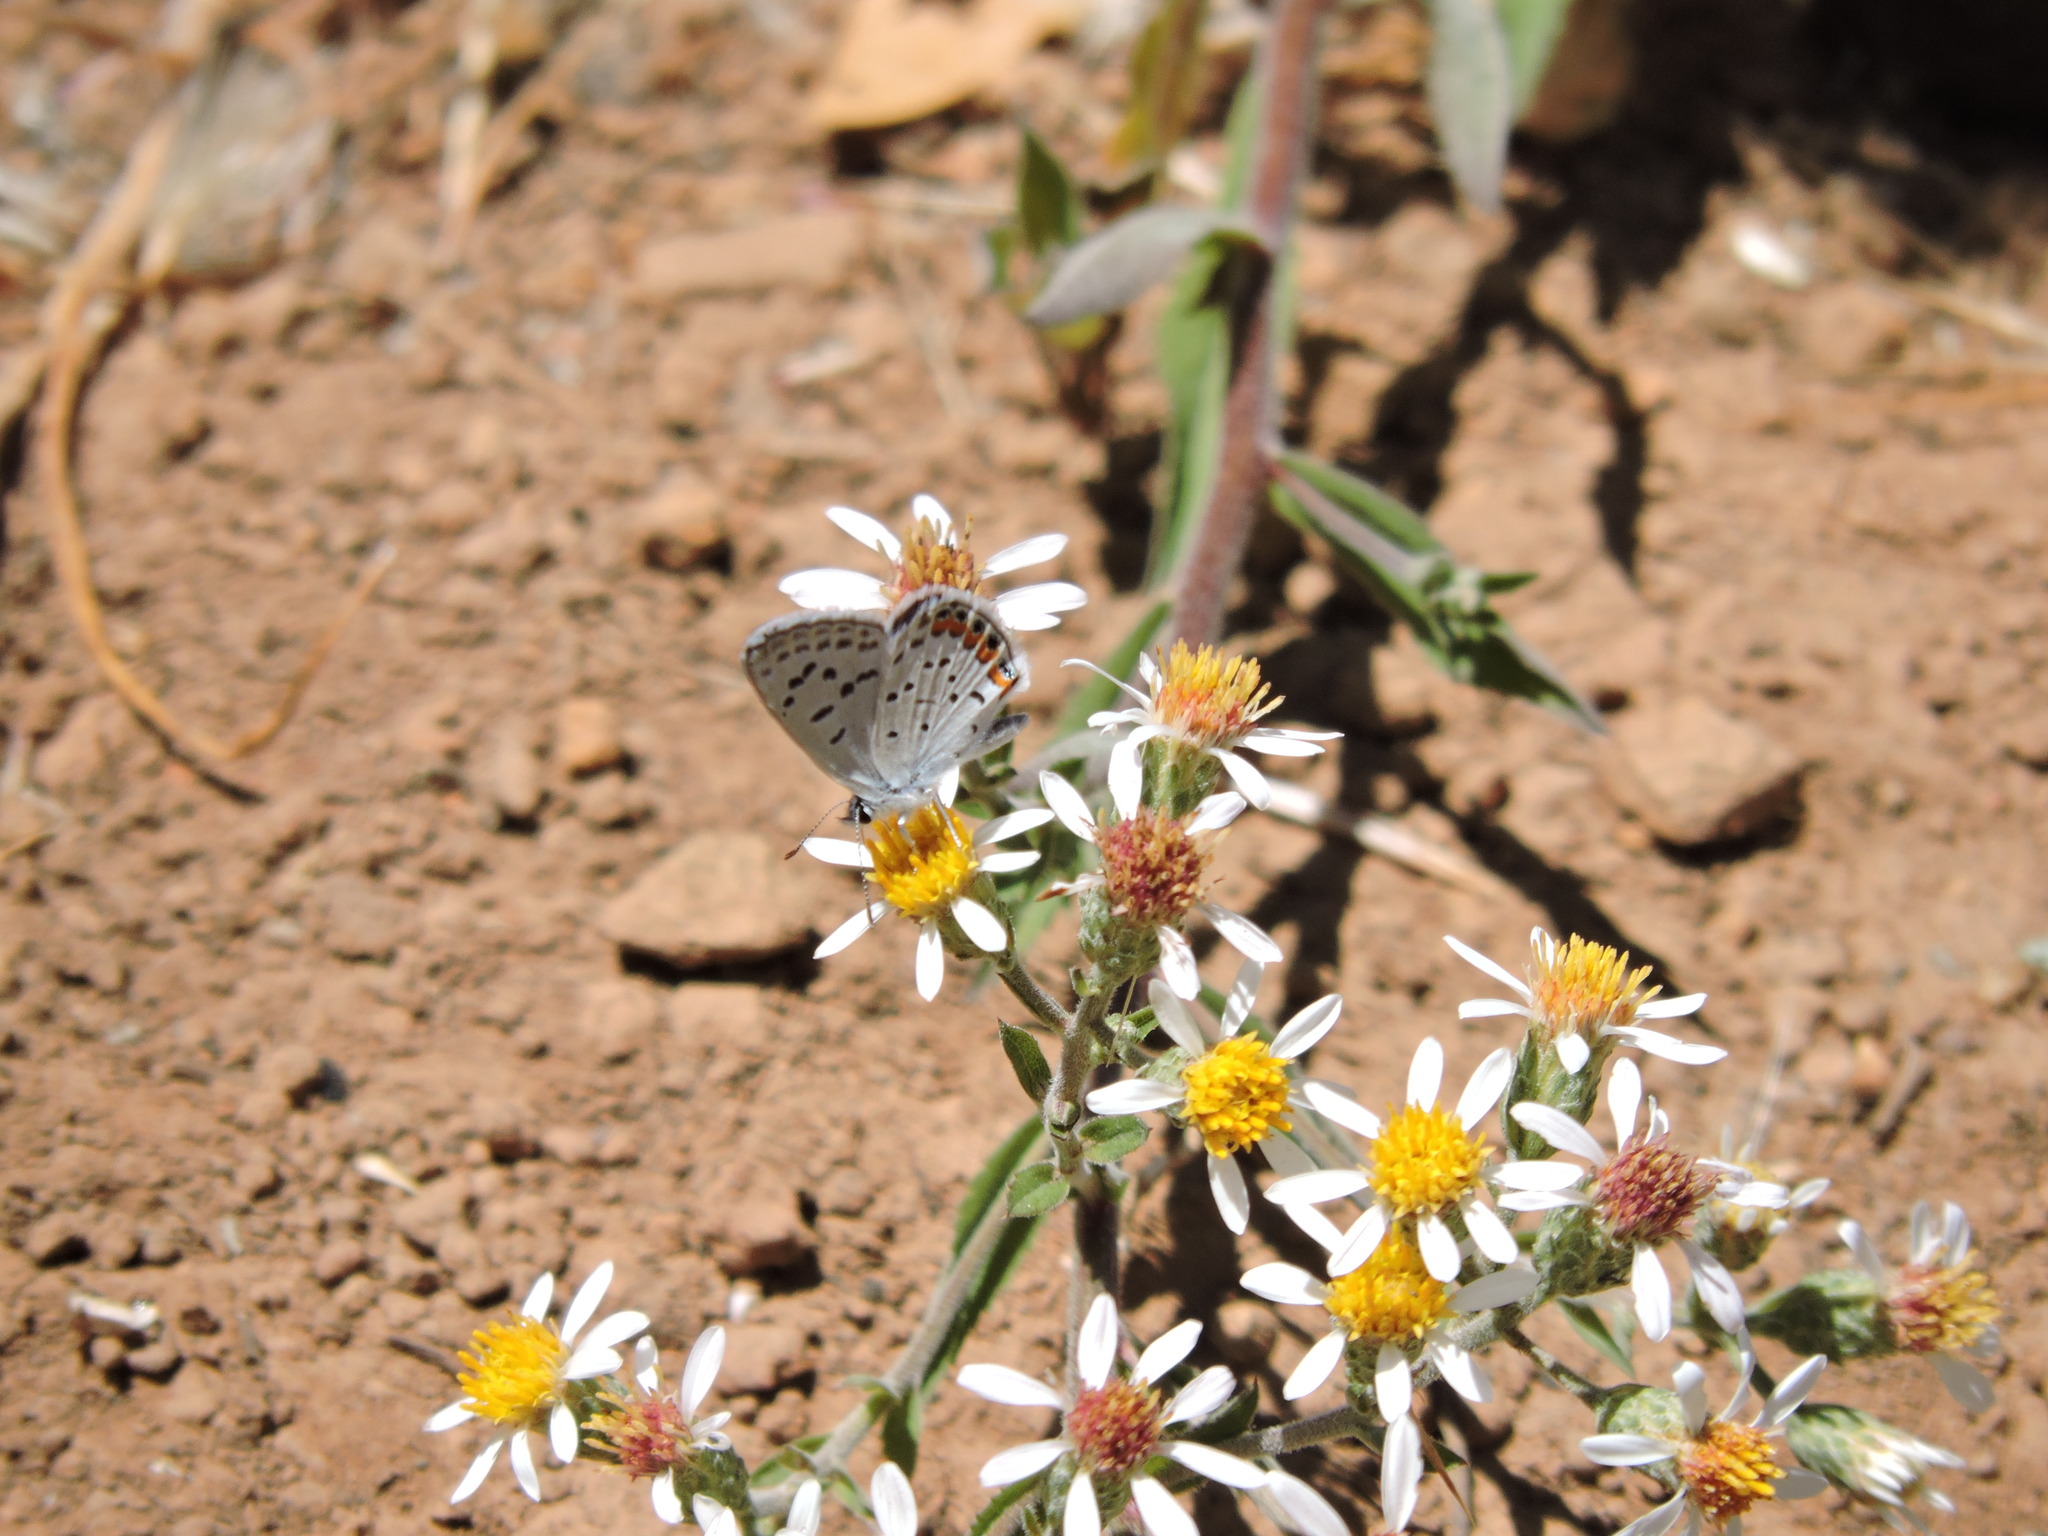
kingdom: Animalia
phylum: Arthropoda
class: Insecta
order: Lepidoptera
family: Lycaenidae
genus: Icaricia
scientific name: Icaricia acmon
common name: Acmon blue
